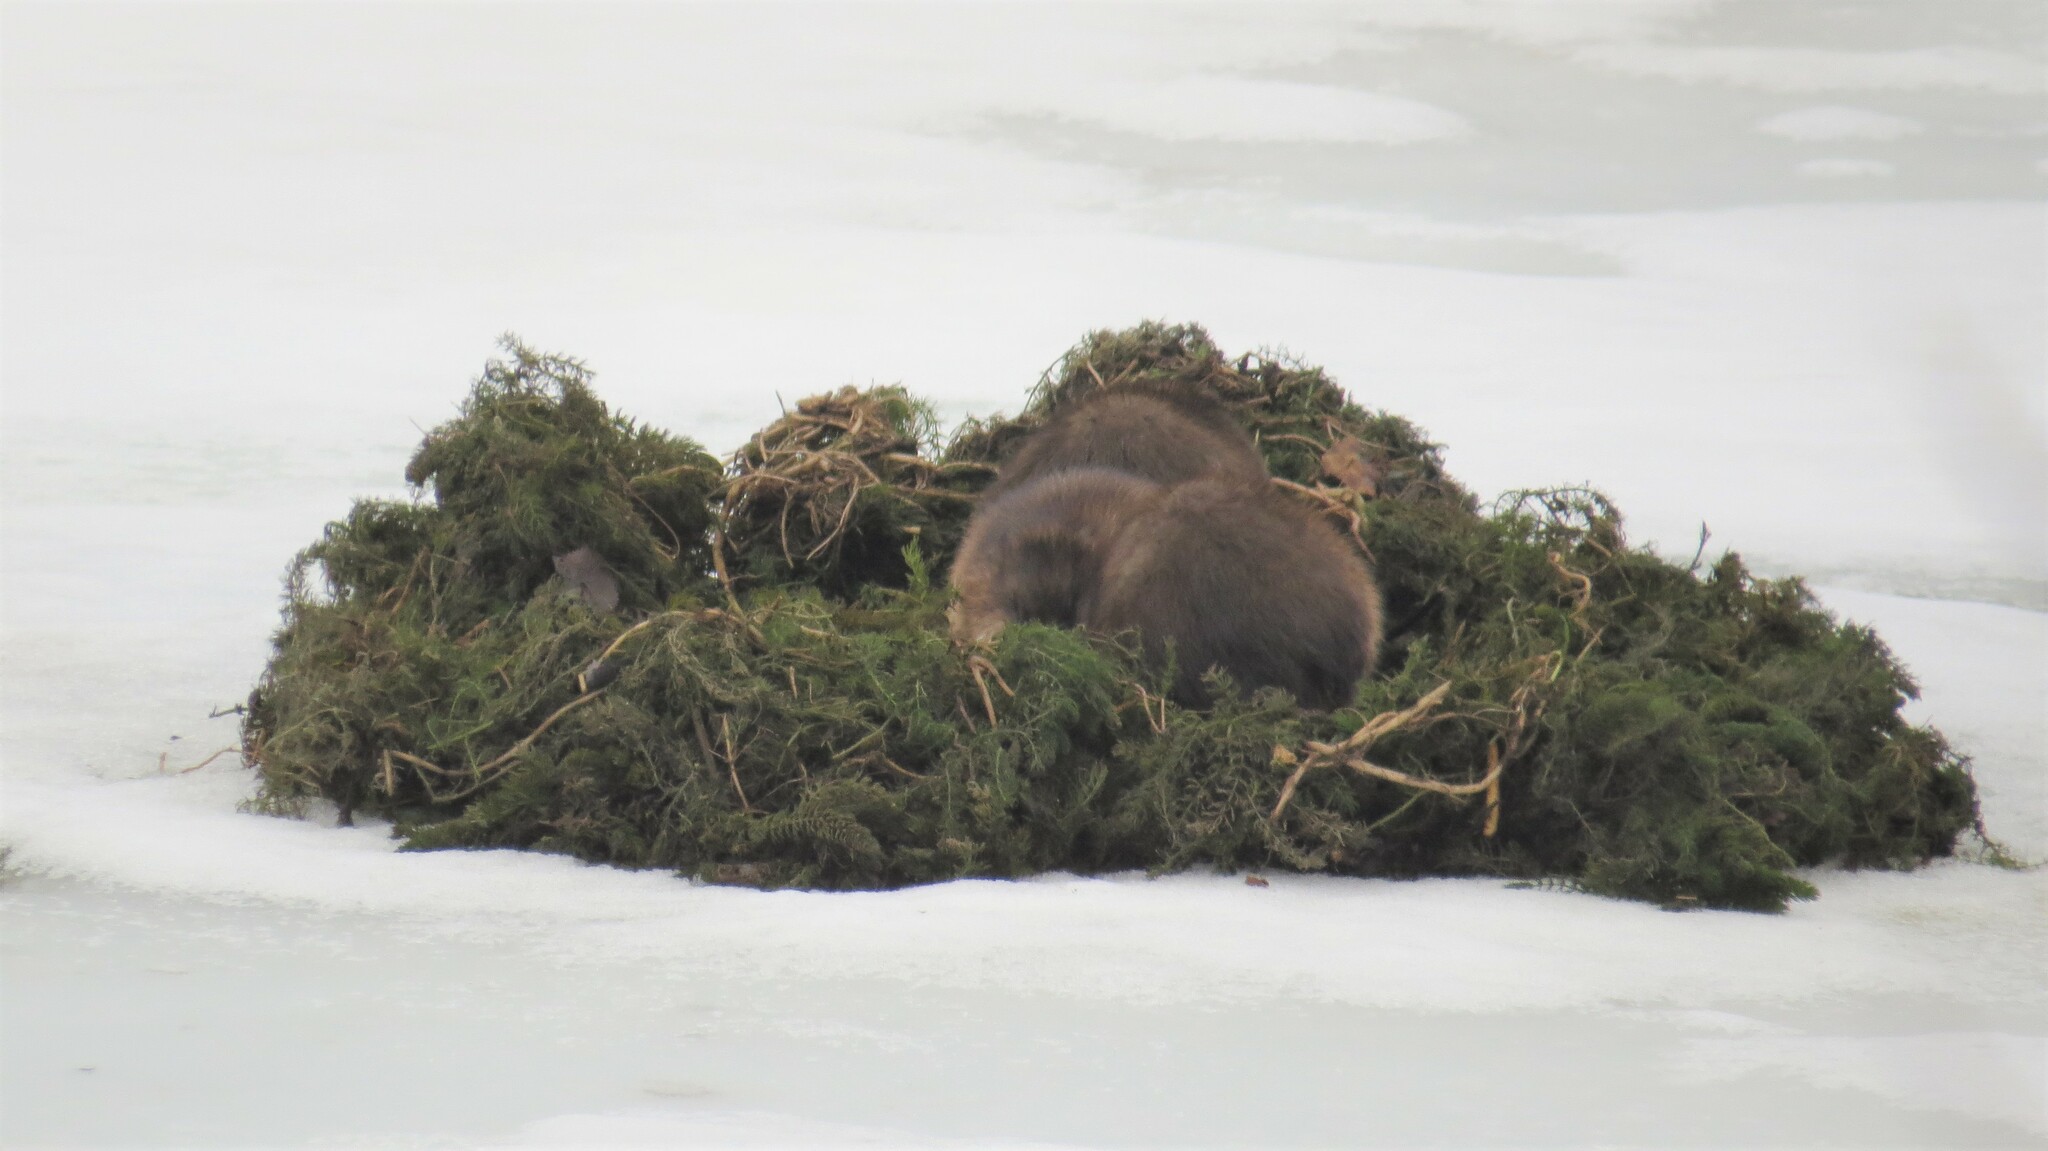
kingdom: Plantae
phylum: Tracheophyta
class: Magnoliopsida
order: Ceratophyllales
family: Ceratophyllaceae
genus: Ceratophyllum
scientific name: Ceratophyllum demersum
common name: Rigid hornwort
